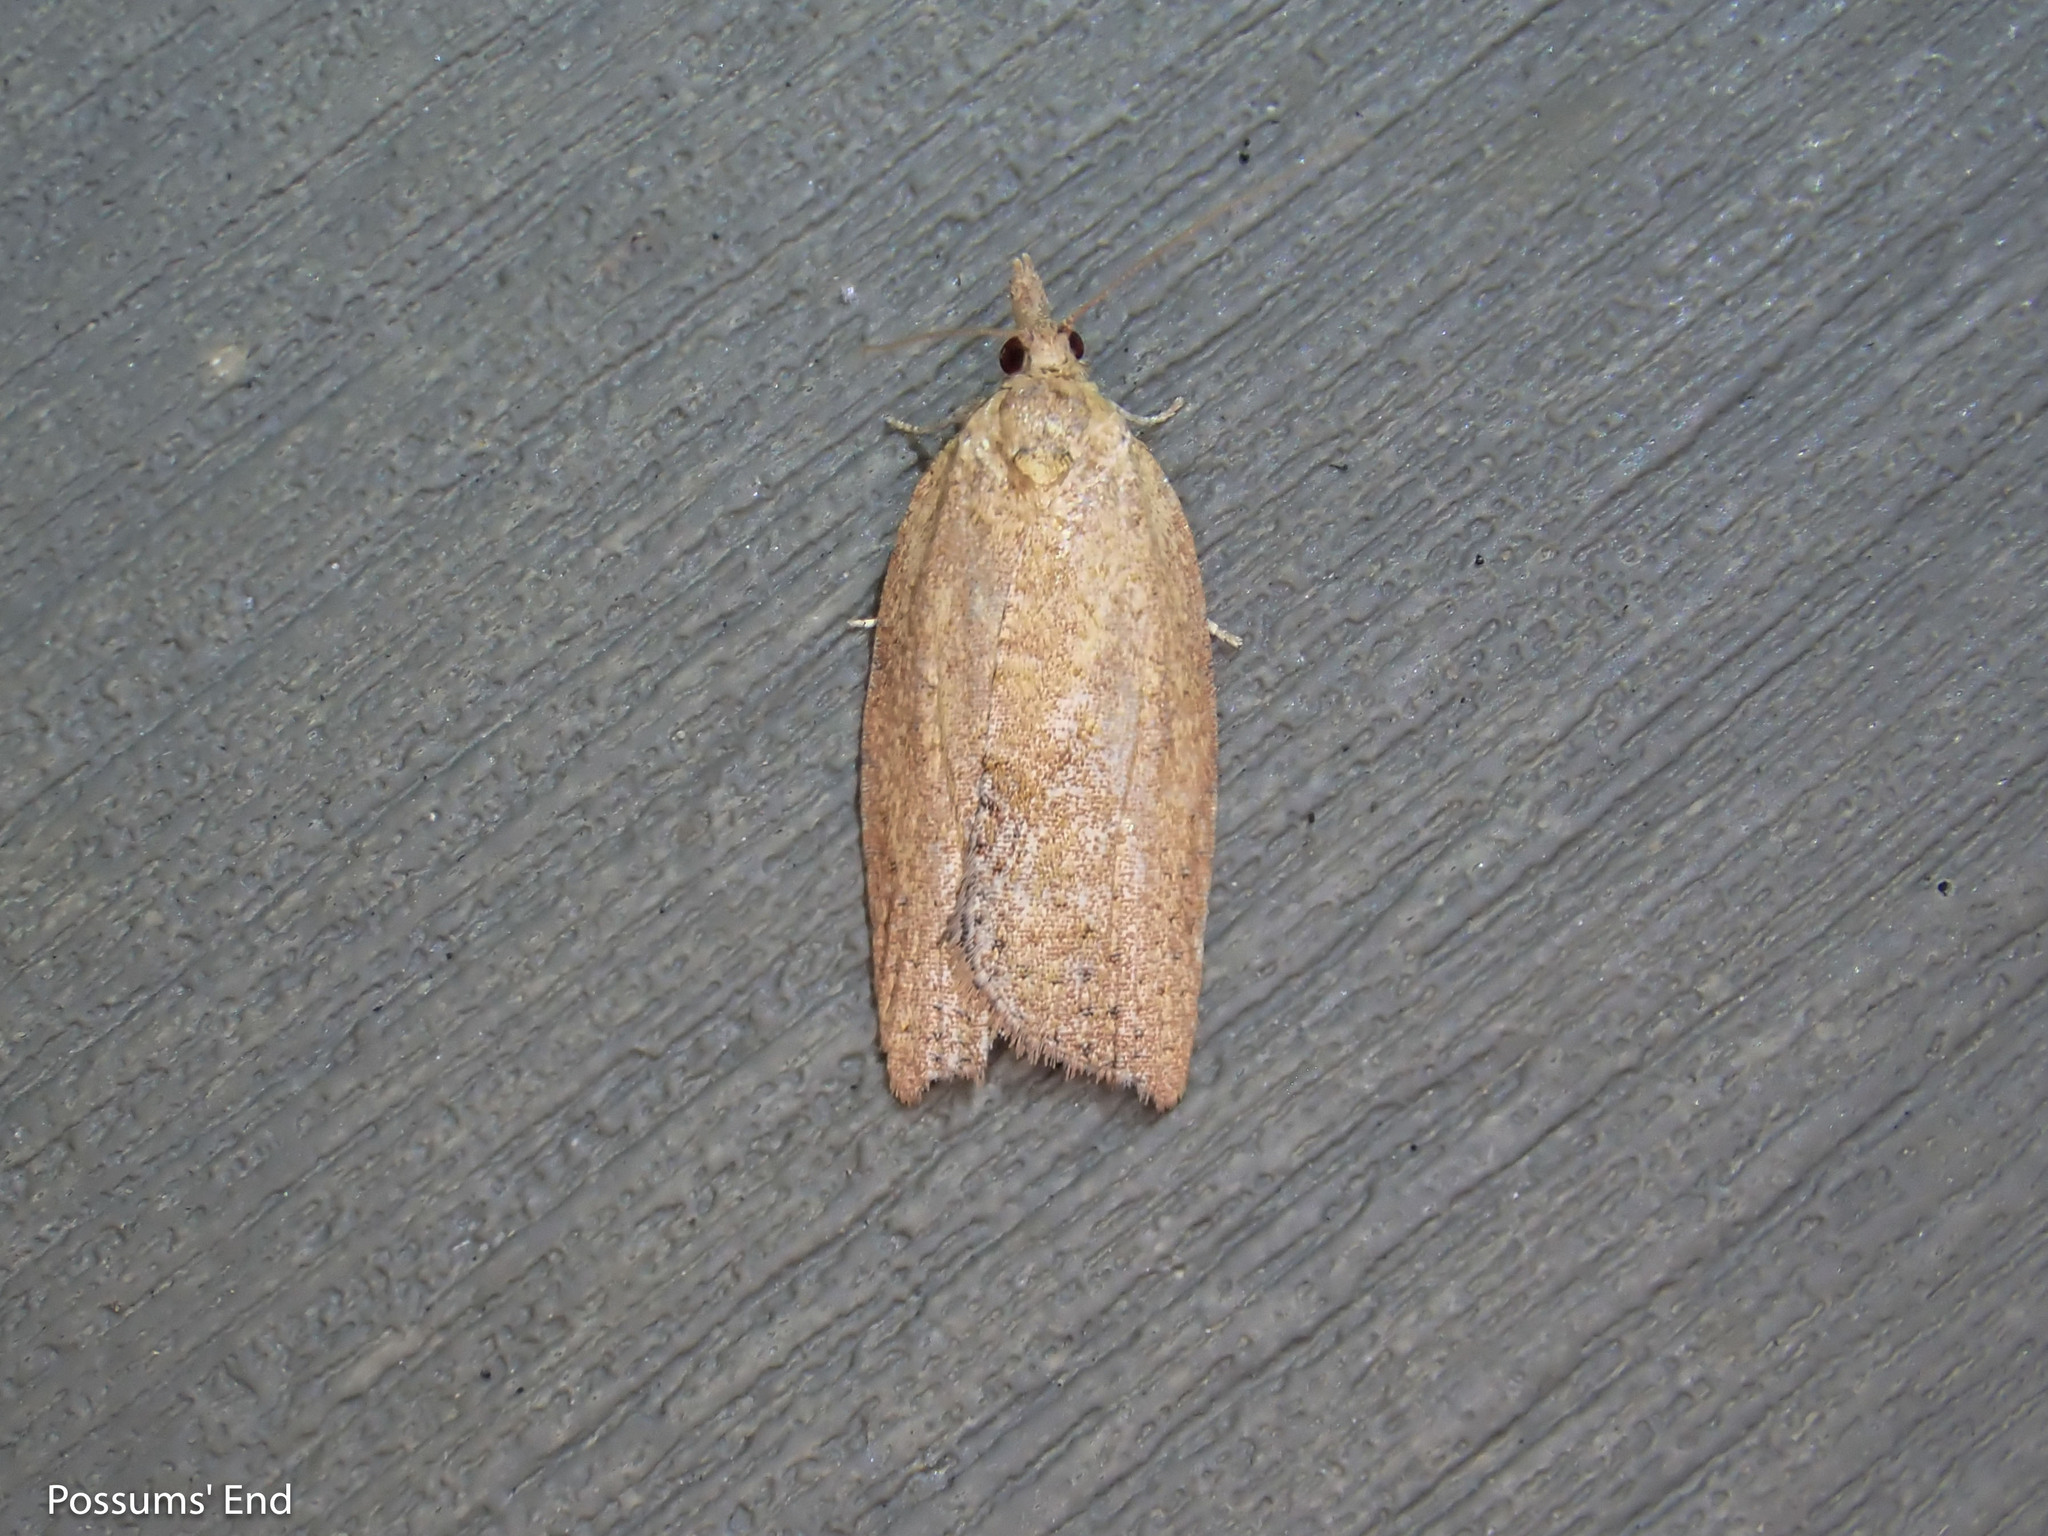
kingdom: Animalia
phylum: Arthropoda
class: Insecta
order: Lepidoptera
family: Tortricidae
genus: Epiphyas
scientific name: Epiphyas postvittana
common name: Light brown apple moth
